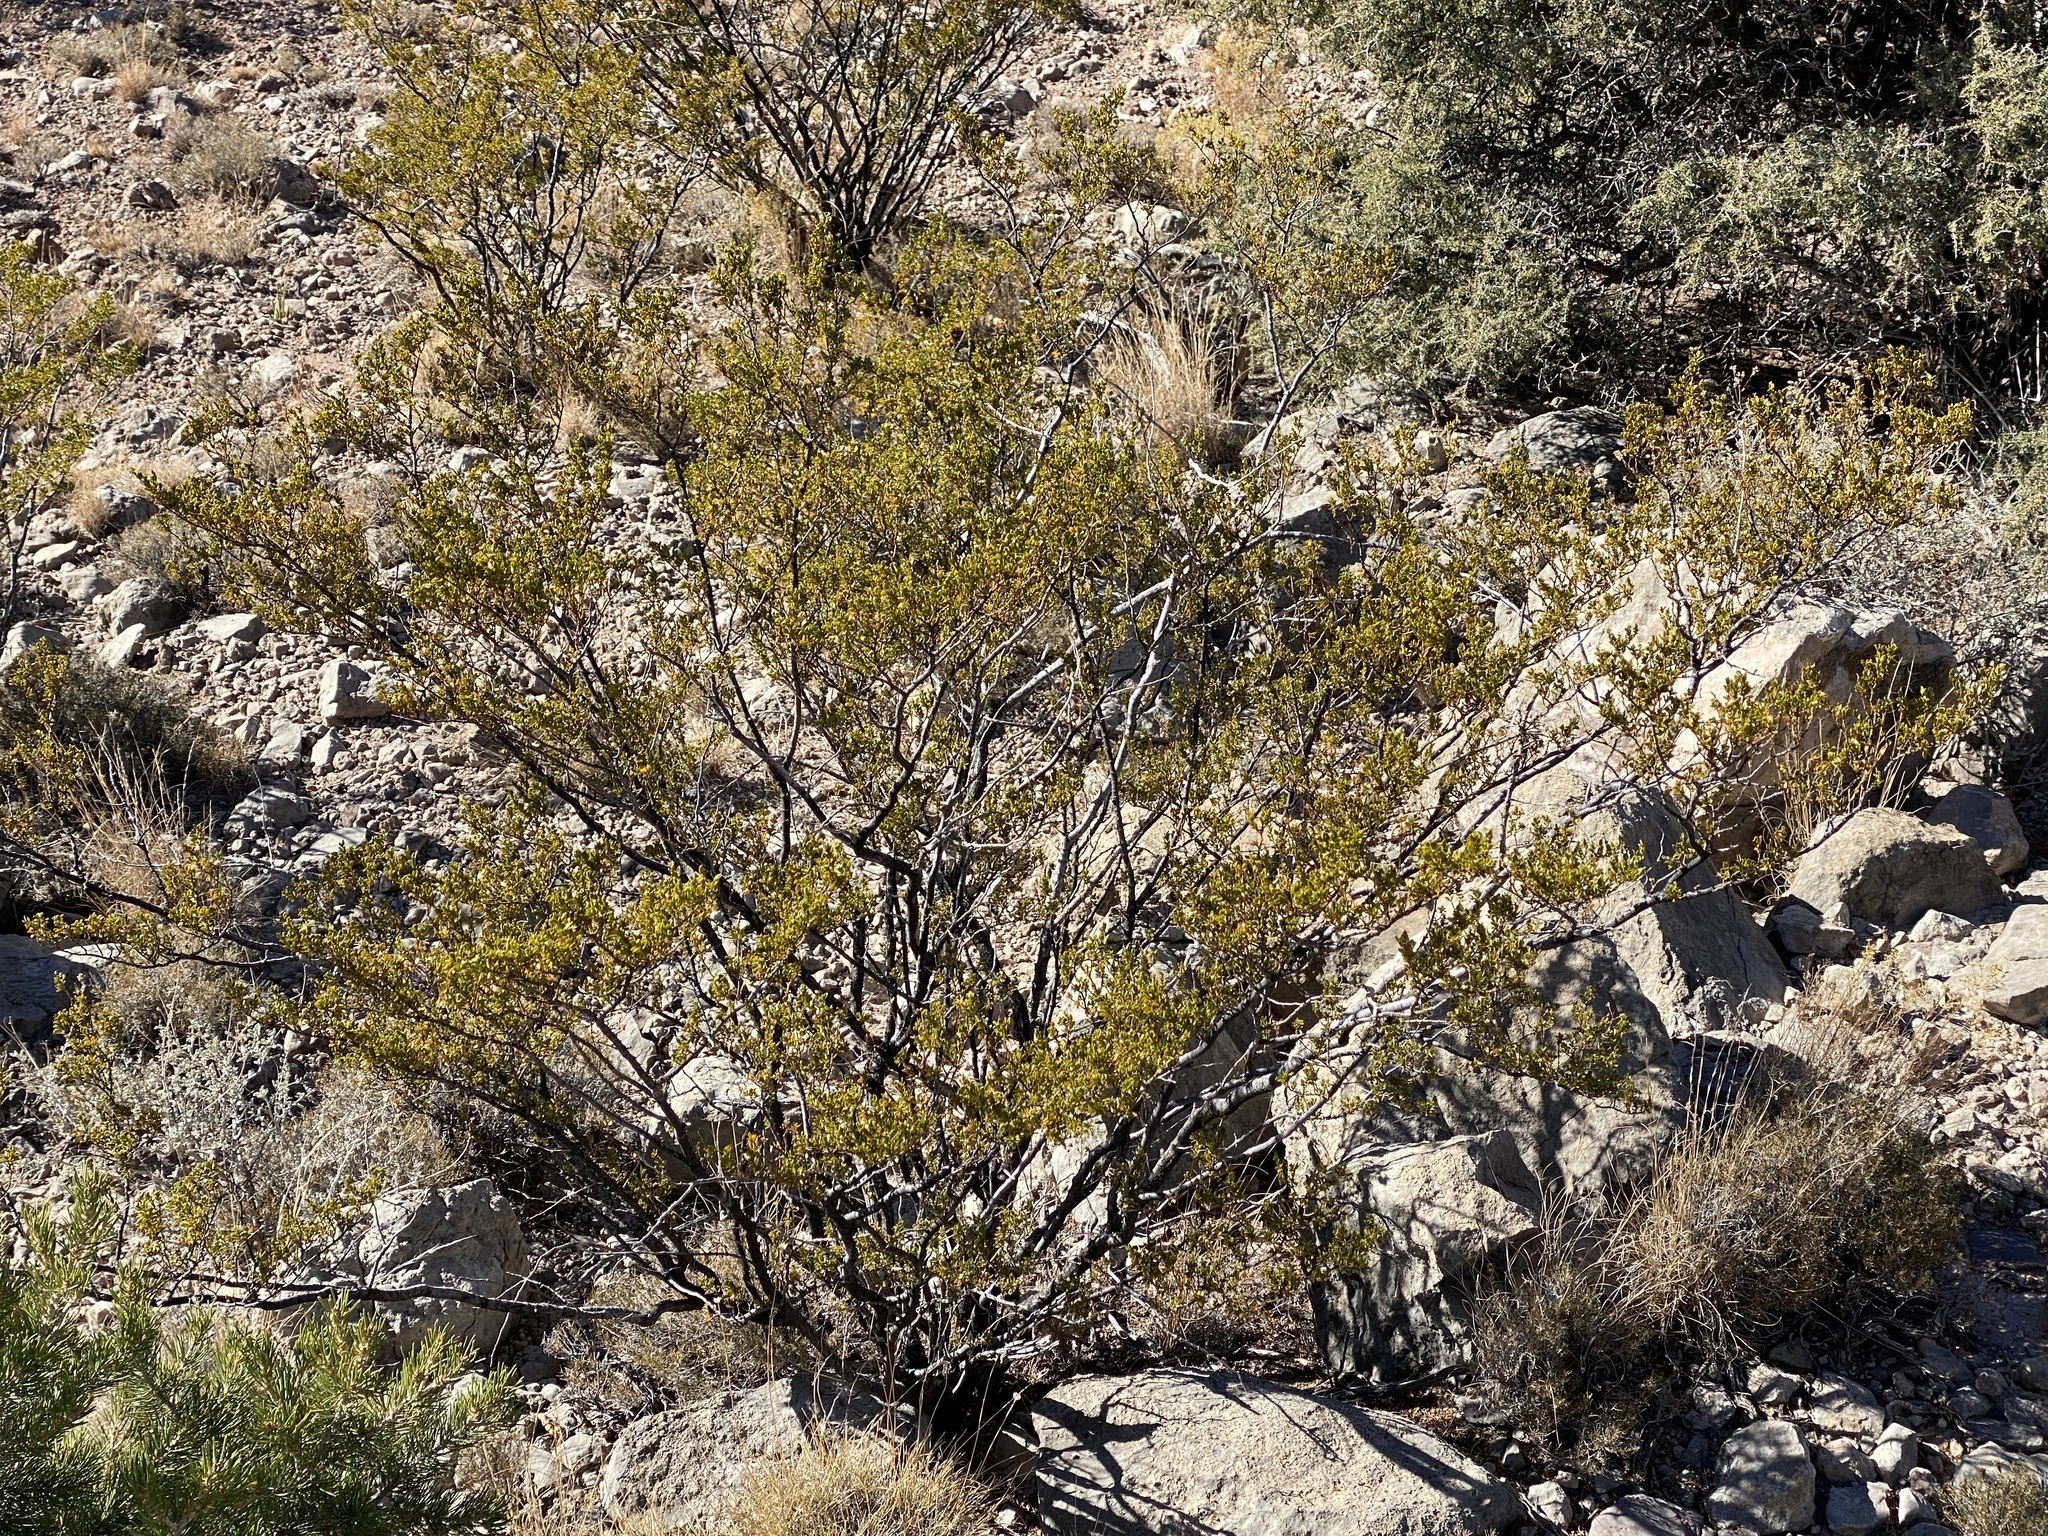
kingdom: Plantae
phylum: Tracheophyta
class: Magnoliopsida
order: Zygophyllales
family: Zygophyllaceae
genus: Larrea
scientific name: Larrea tridentata
